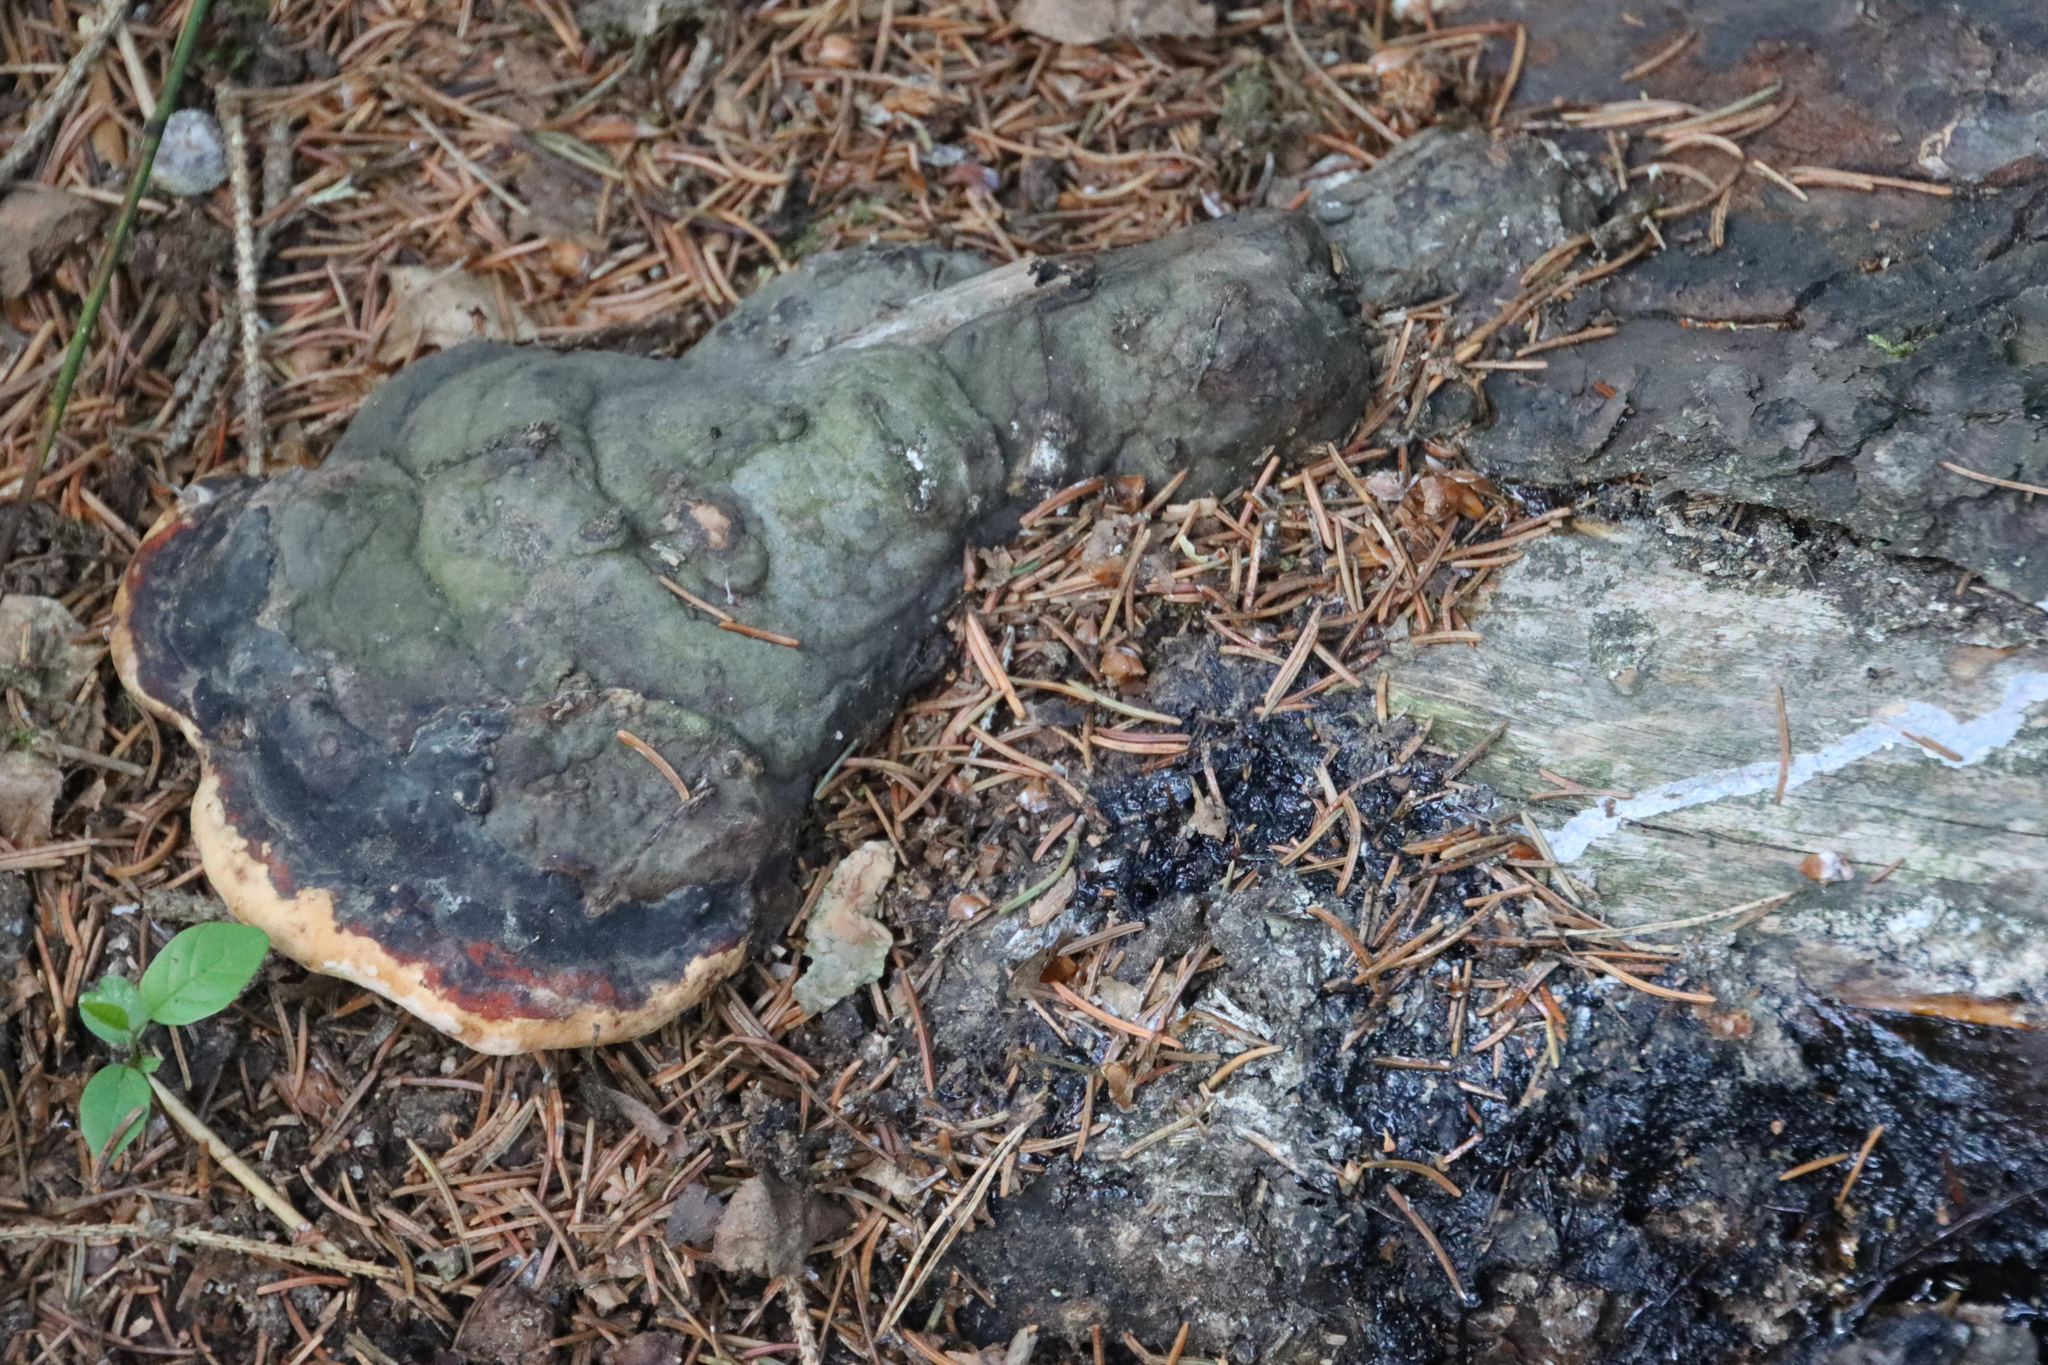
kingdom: Fungi
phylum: Basidiomycota
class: Agaricomycetes
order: Polyporales
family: Fomitopsidaceae
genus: Fomitopsis
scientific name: Fomitopsis pinicola
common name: Red-belted bracket
